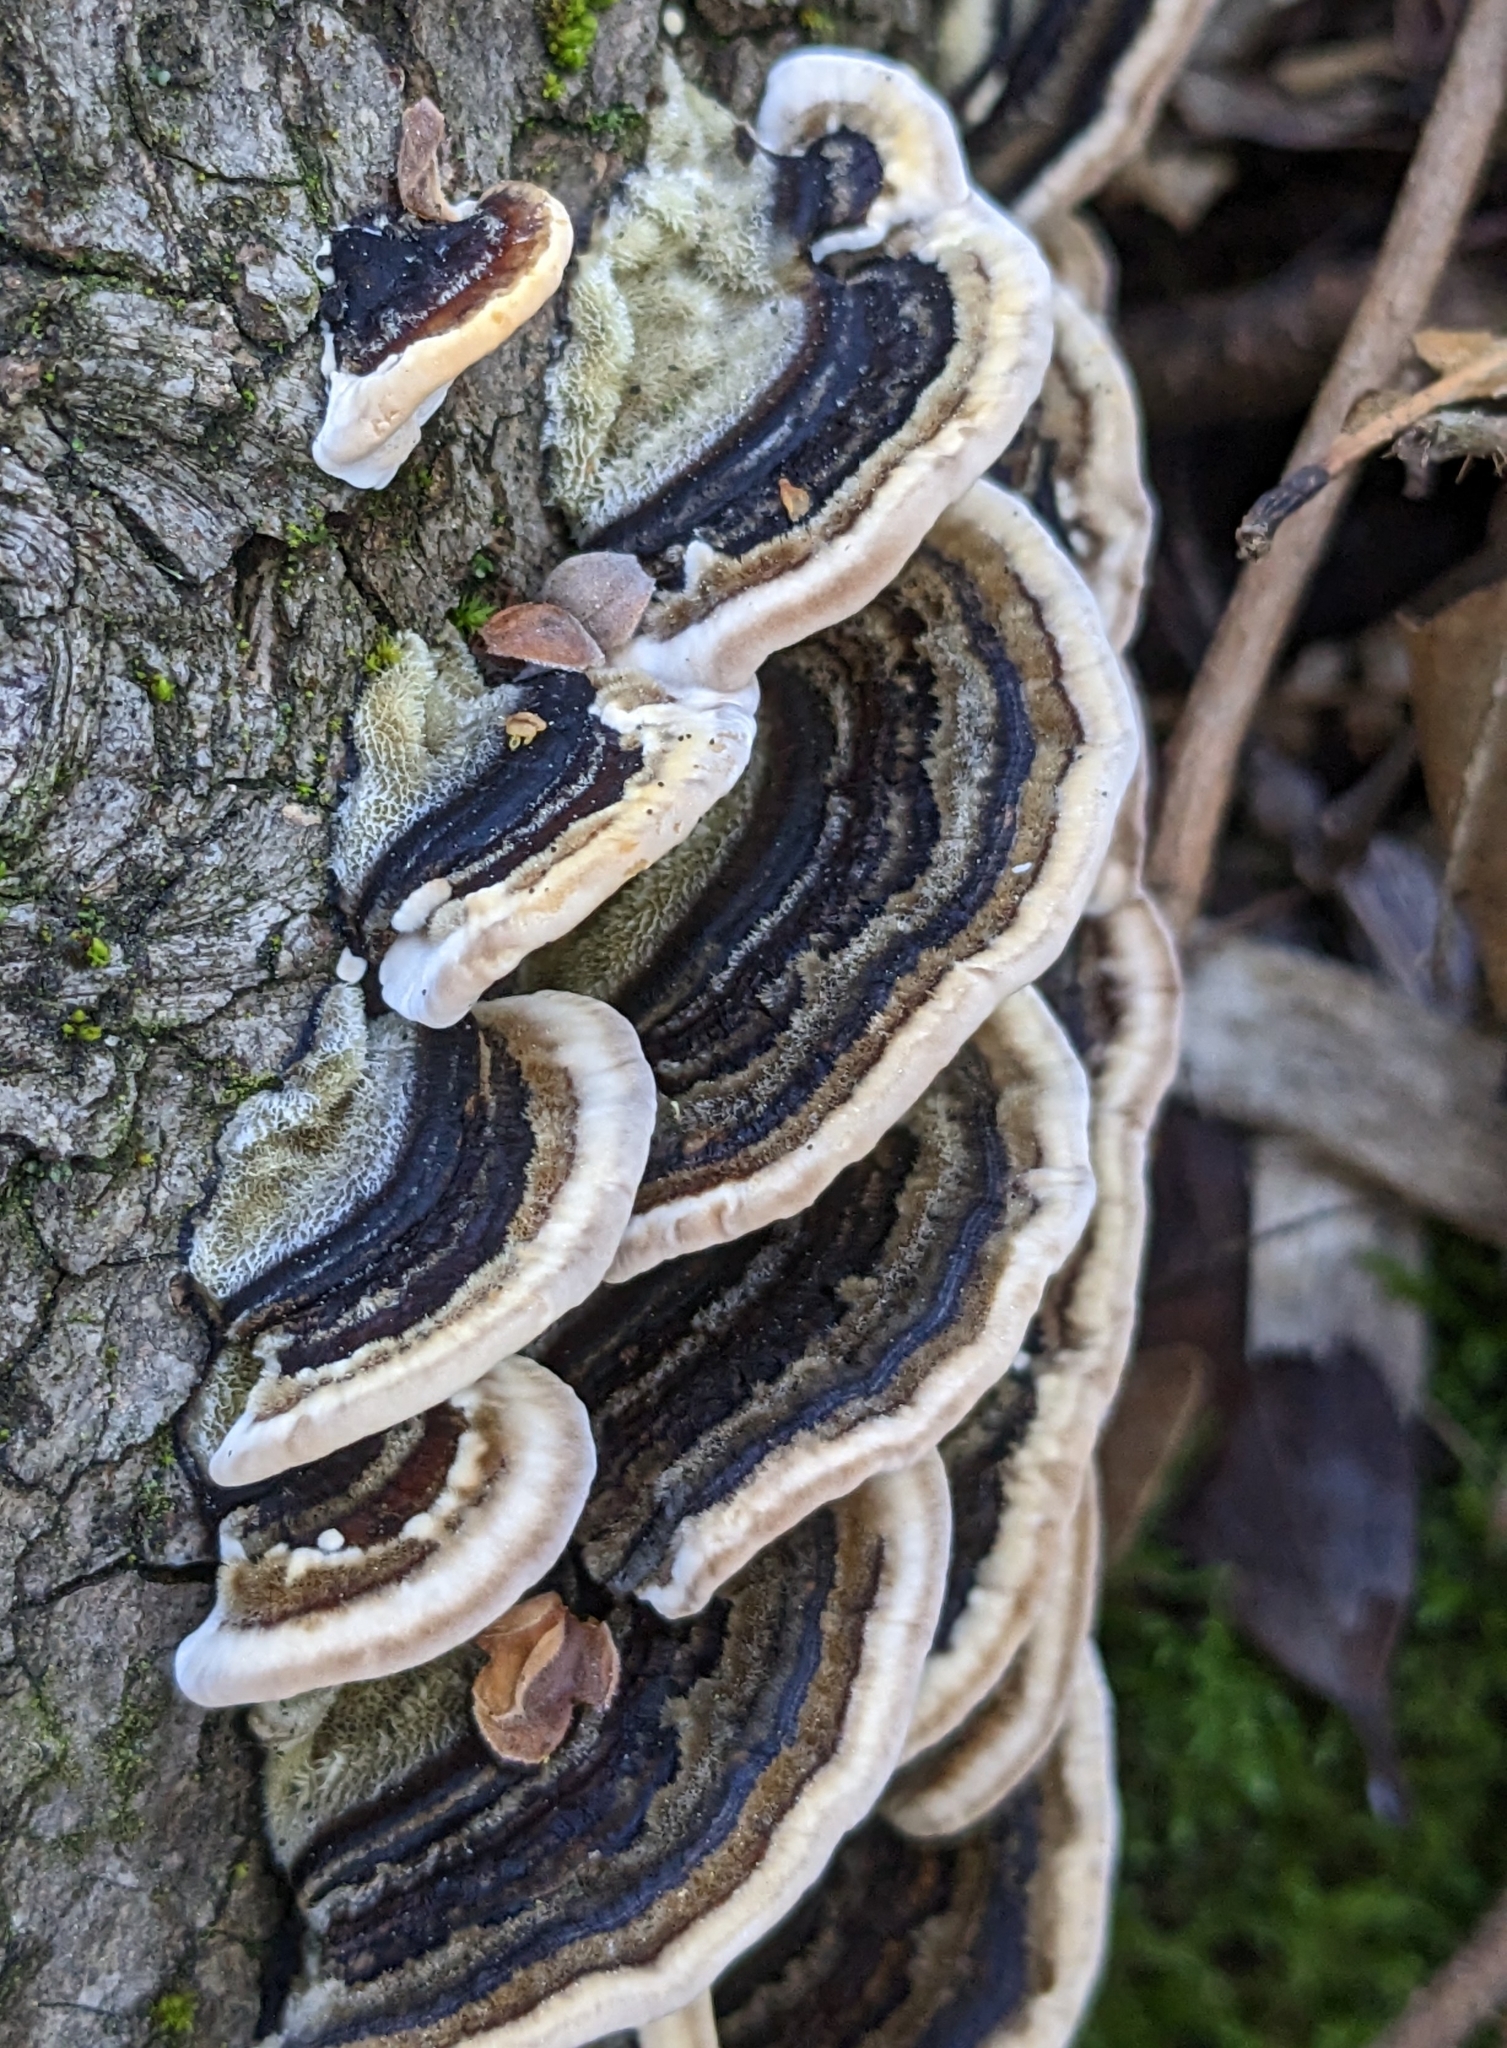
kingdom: Fungi
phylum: Basidiomycota
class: Agaricomycetes
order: Polyporales
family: Polyporaceae
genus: Trametes
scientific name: Trametes versicolor
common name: Turkeytail
